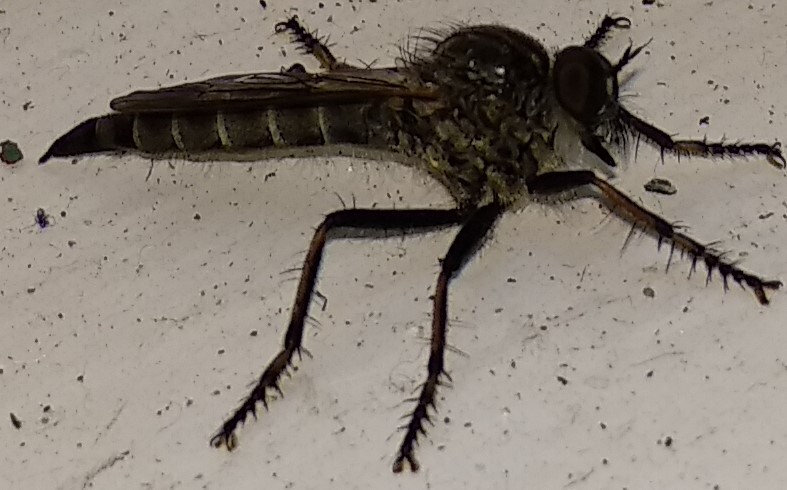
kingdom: Animalia
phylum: Arthropoda
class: Insecta
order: Diptera
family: Asilidae
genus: Machimus
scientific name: Machimus sadyates
